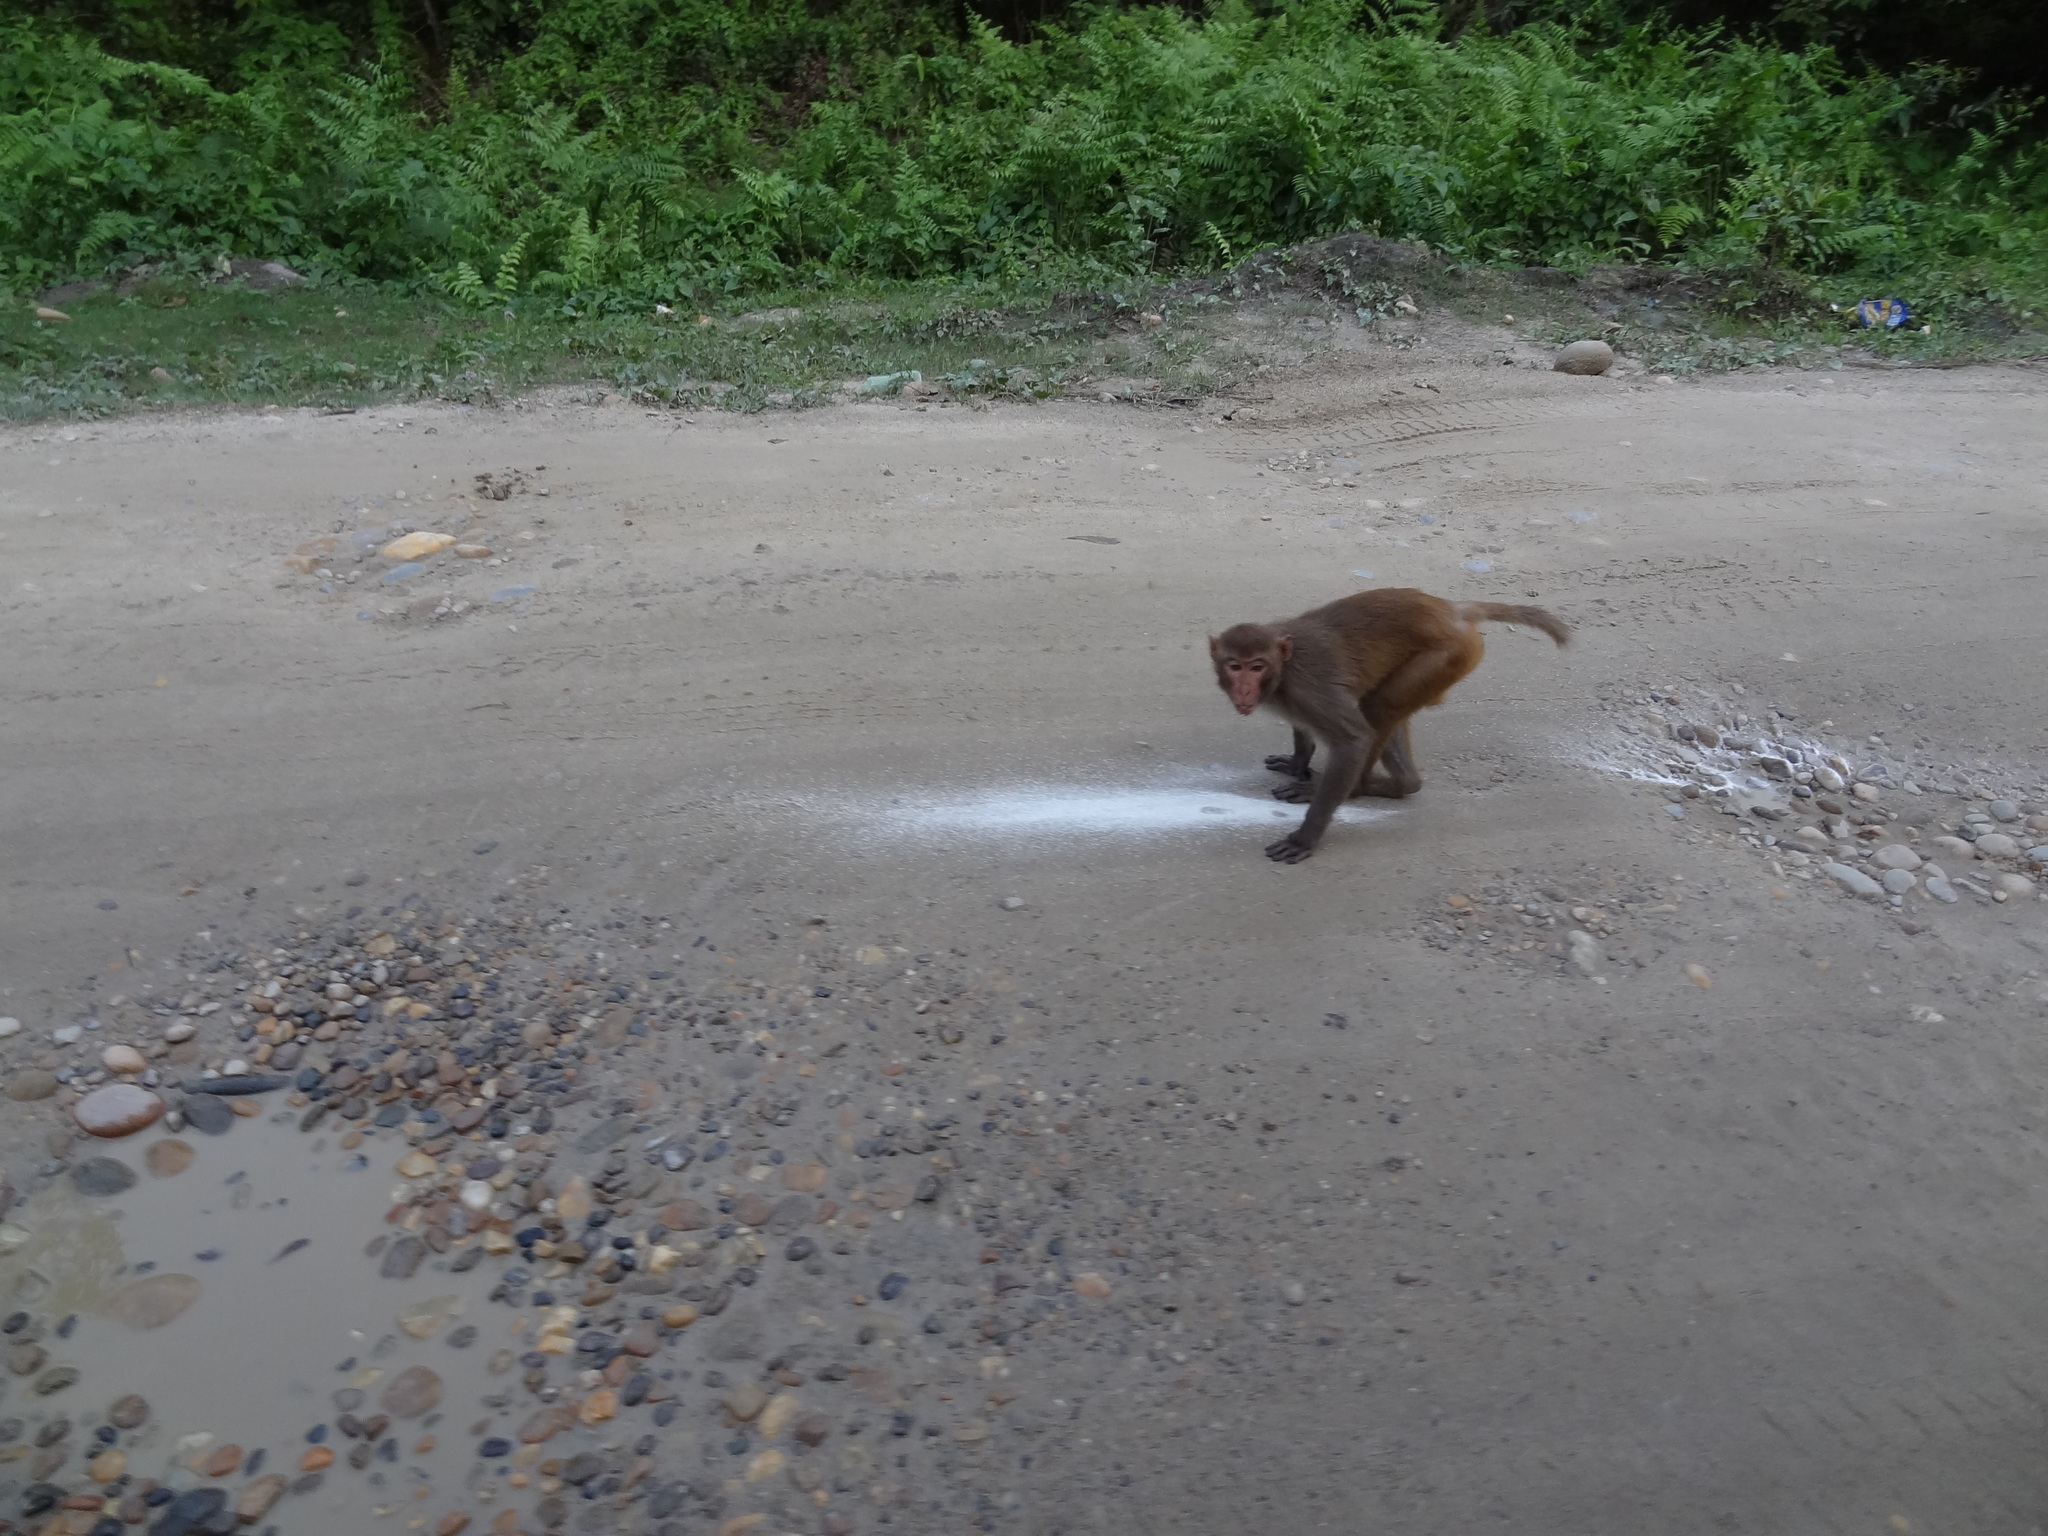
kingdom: Animalia
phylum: Chordata
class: Mammalia
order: Primates
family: Cercopithecidae
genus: Macaca
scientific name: Macaca mulatta
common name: Rhesus monkey
